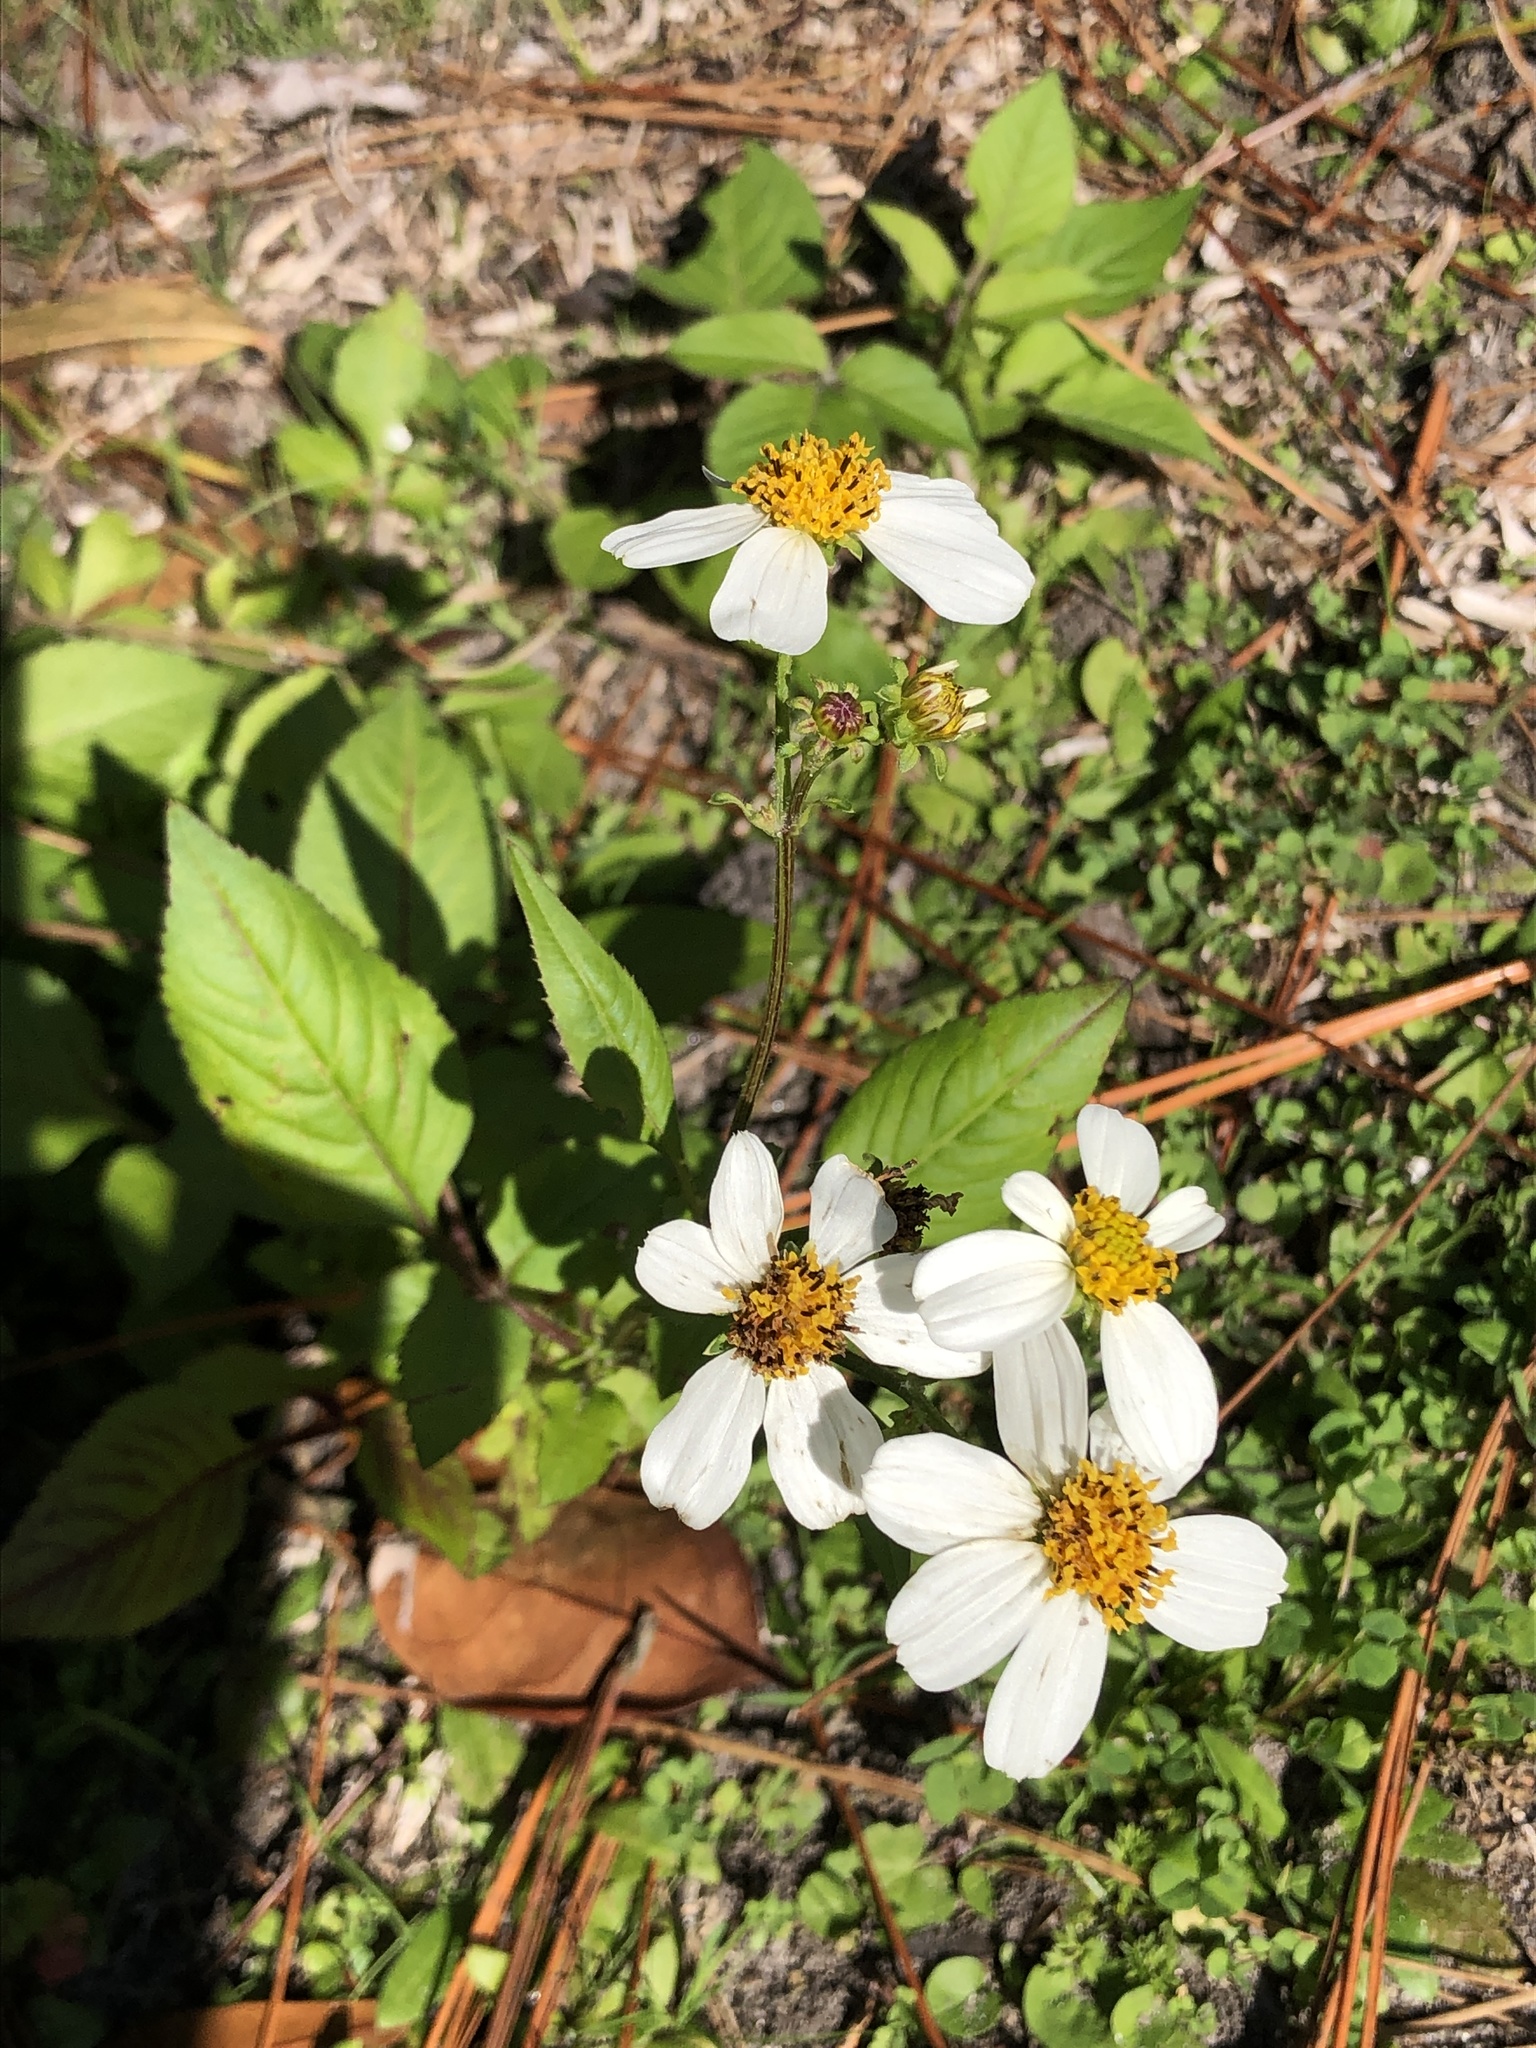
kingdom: Plantae
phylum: Tracheophyta
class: Magnoliopsida
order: Asterales
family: Asteraceae
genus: Bidens
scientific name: Bidens alba
